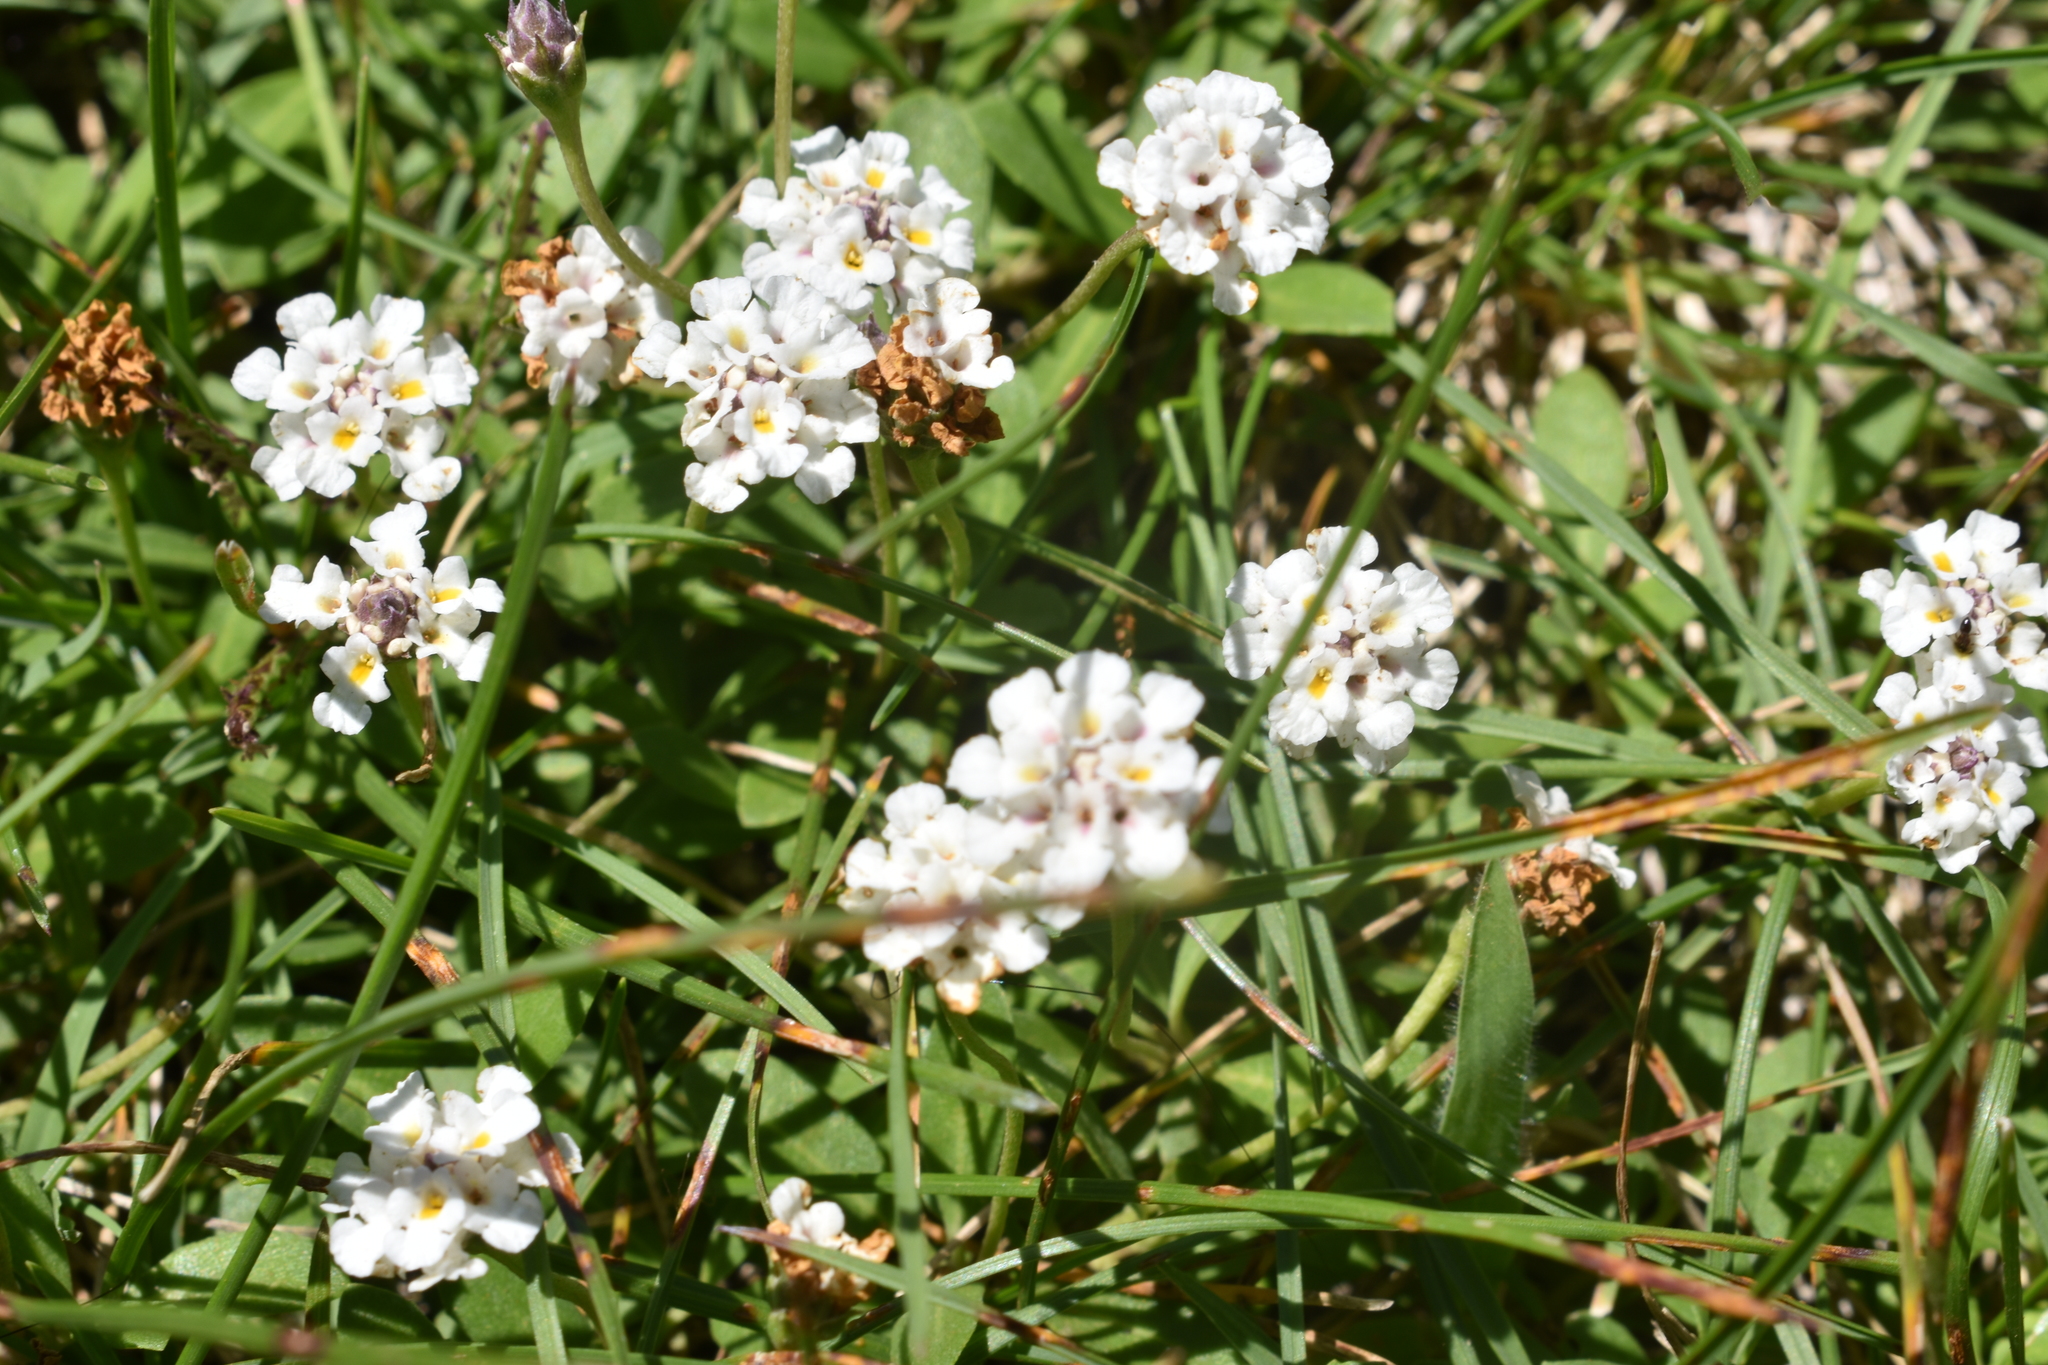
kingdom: Plantae
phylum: Tracheophyta
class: Magnoliopsida
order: Lamiales
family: Verbenaceae
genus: Phyla
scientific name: Phyla nodiflora
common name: Frogfruit
